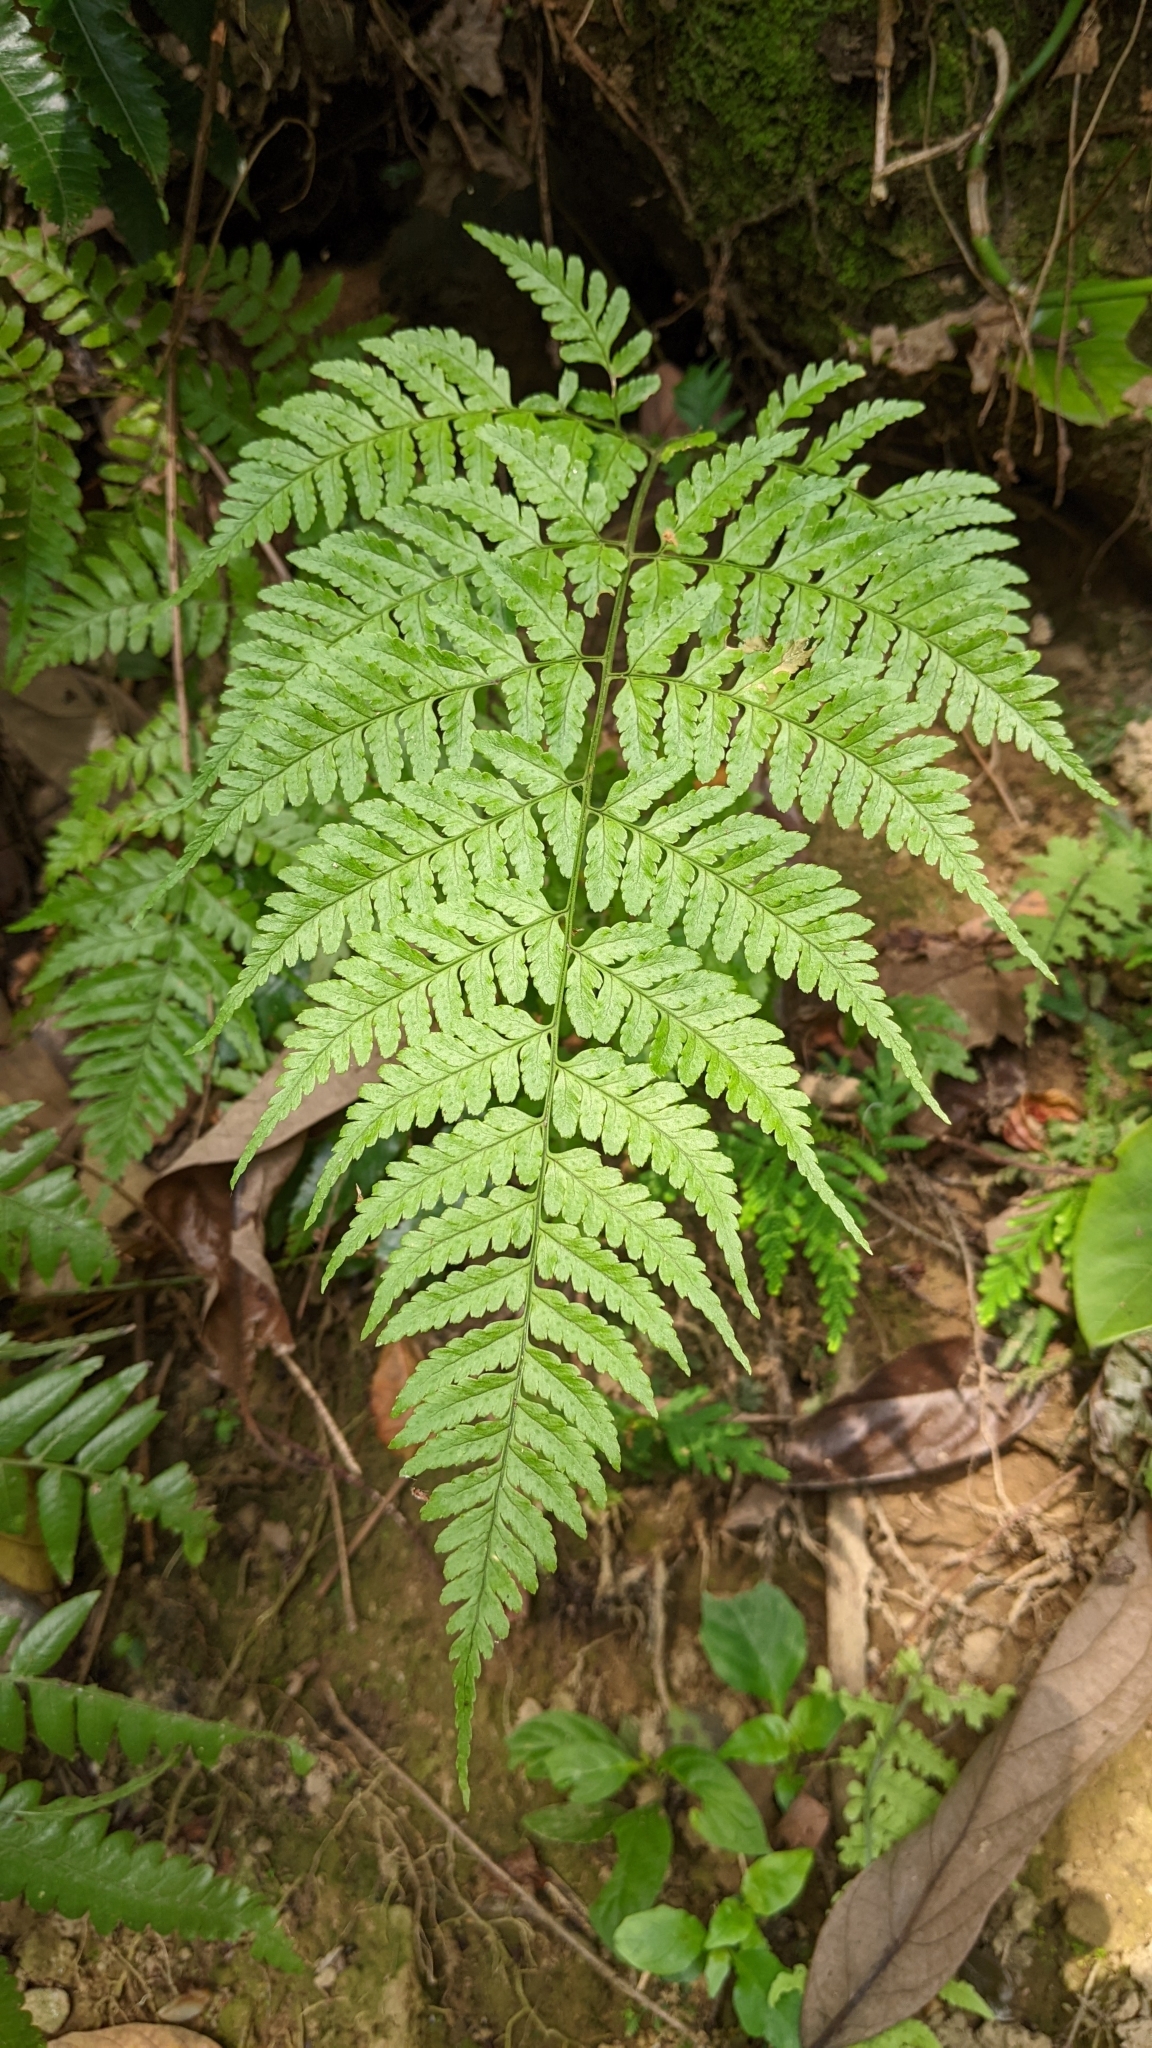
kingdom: Plantae
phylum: Tracheophyta
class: Polypodiopsida
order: Polypodiales
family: Dryopteridaceae
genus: Dryopteris
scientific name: Dryopteris sparsa
